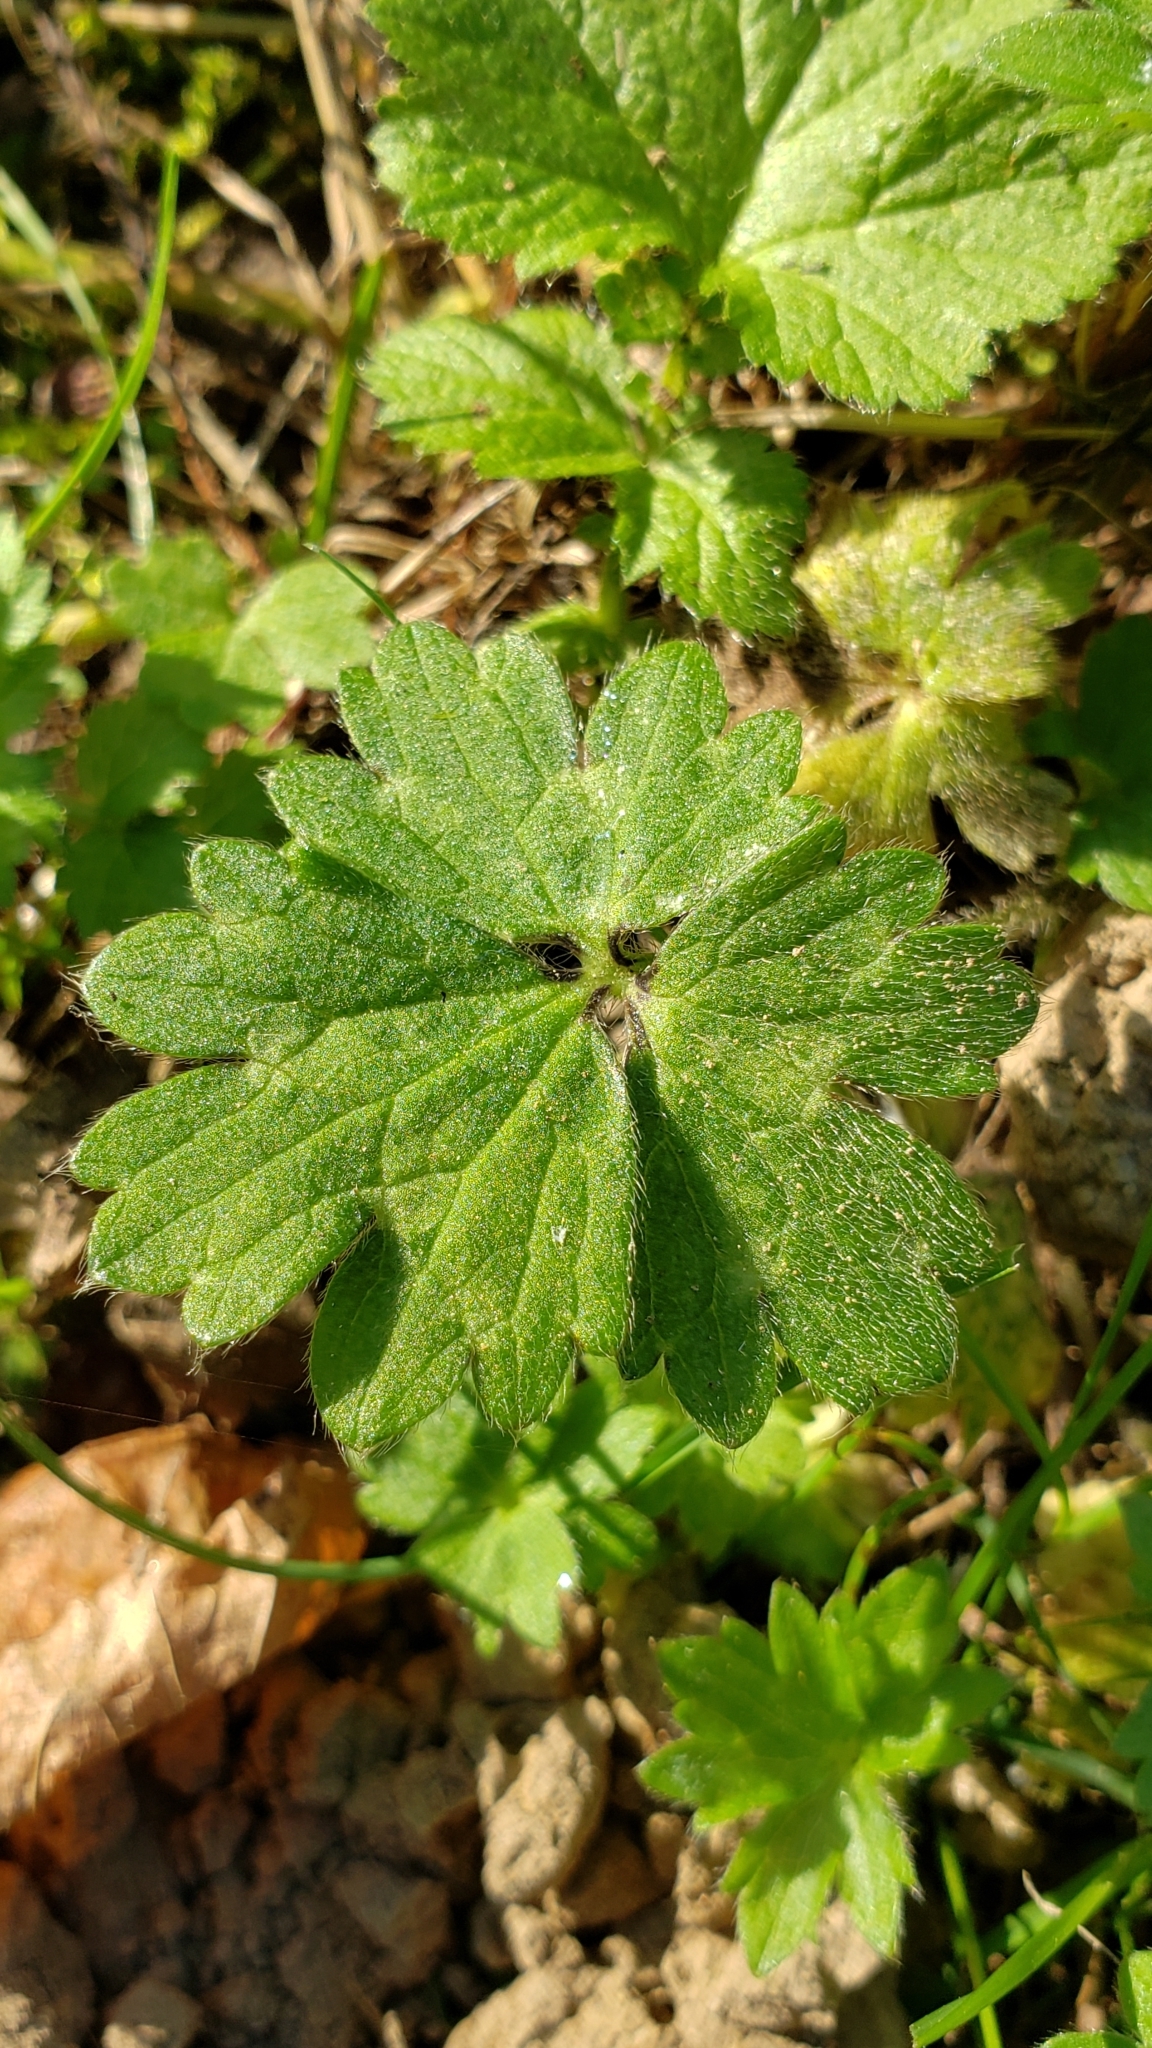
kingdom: Plantae
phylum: Tracheophyta
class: Magnoliopsida
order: Ranunculales
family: Ranunculaceae
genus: Ranunculus
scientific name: Ranunculus repens
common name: Creeping buttercup
